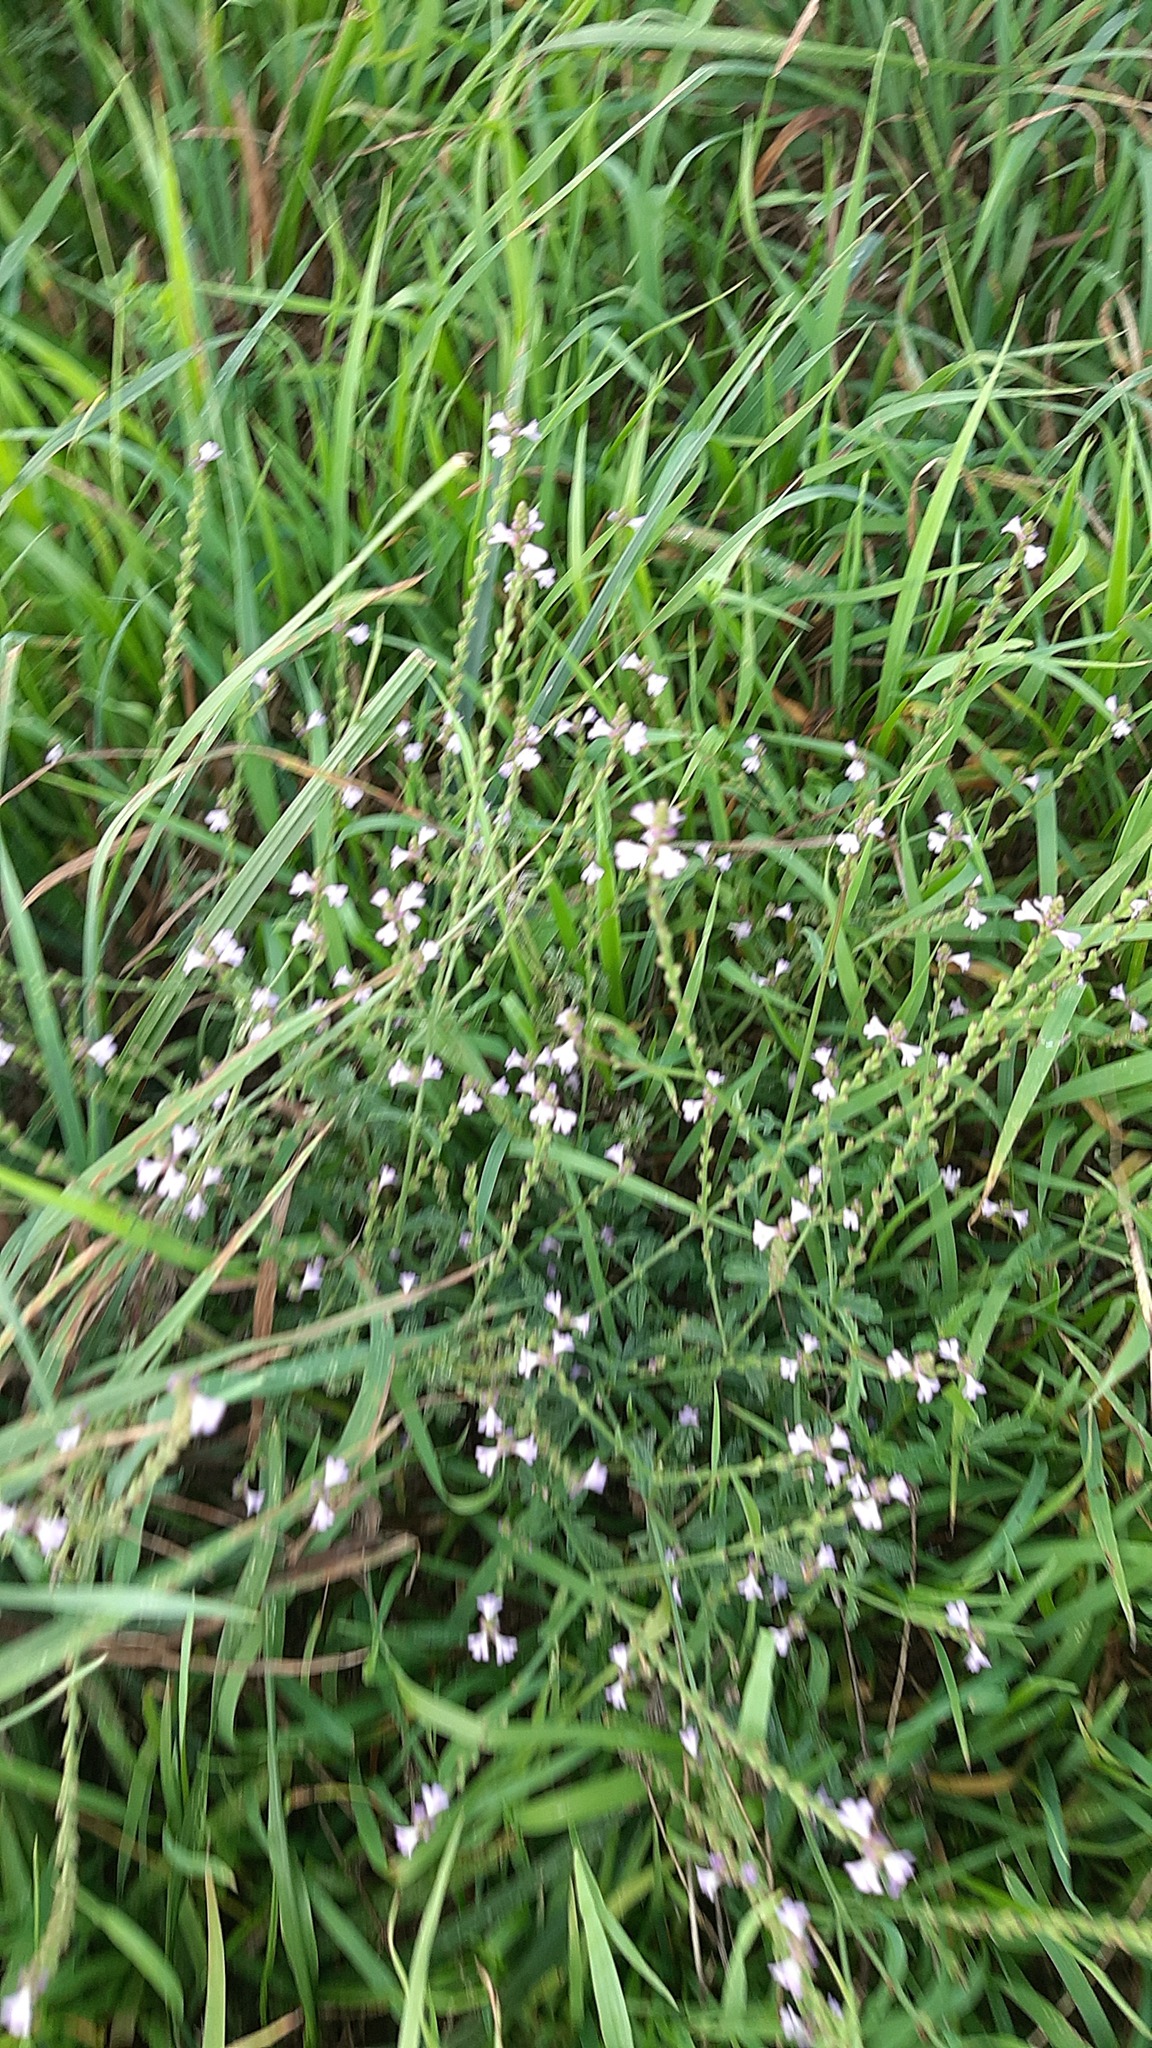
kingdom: Plantae
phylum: Tracheophyta
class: Magnoliopsida
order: Lamiales
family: Verbenaceae
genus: Verbena
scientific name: Verbena officinalis
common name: Vervain
